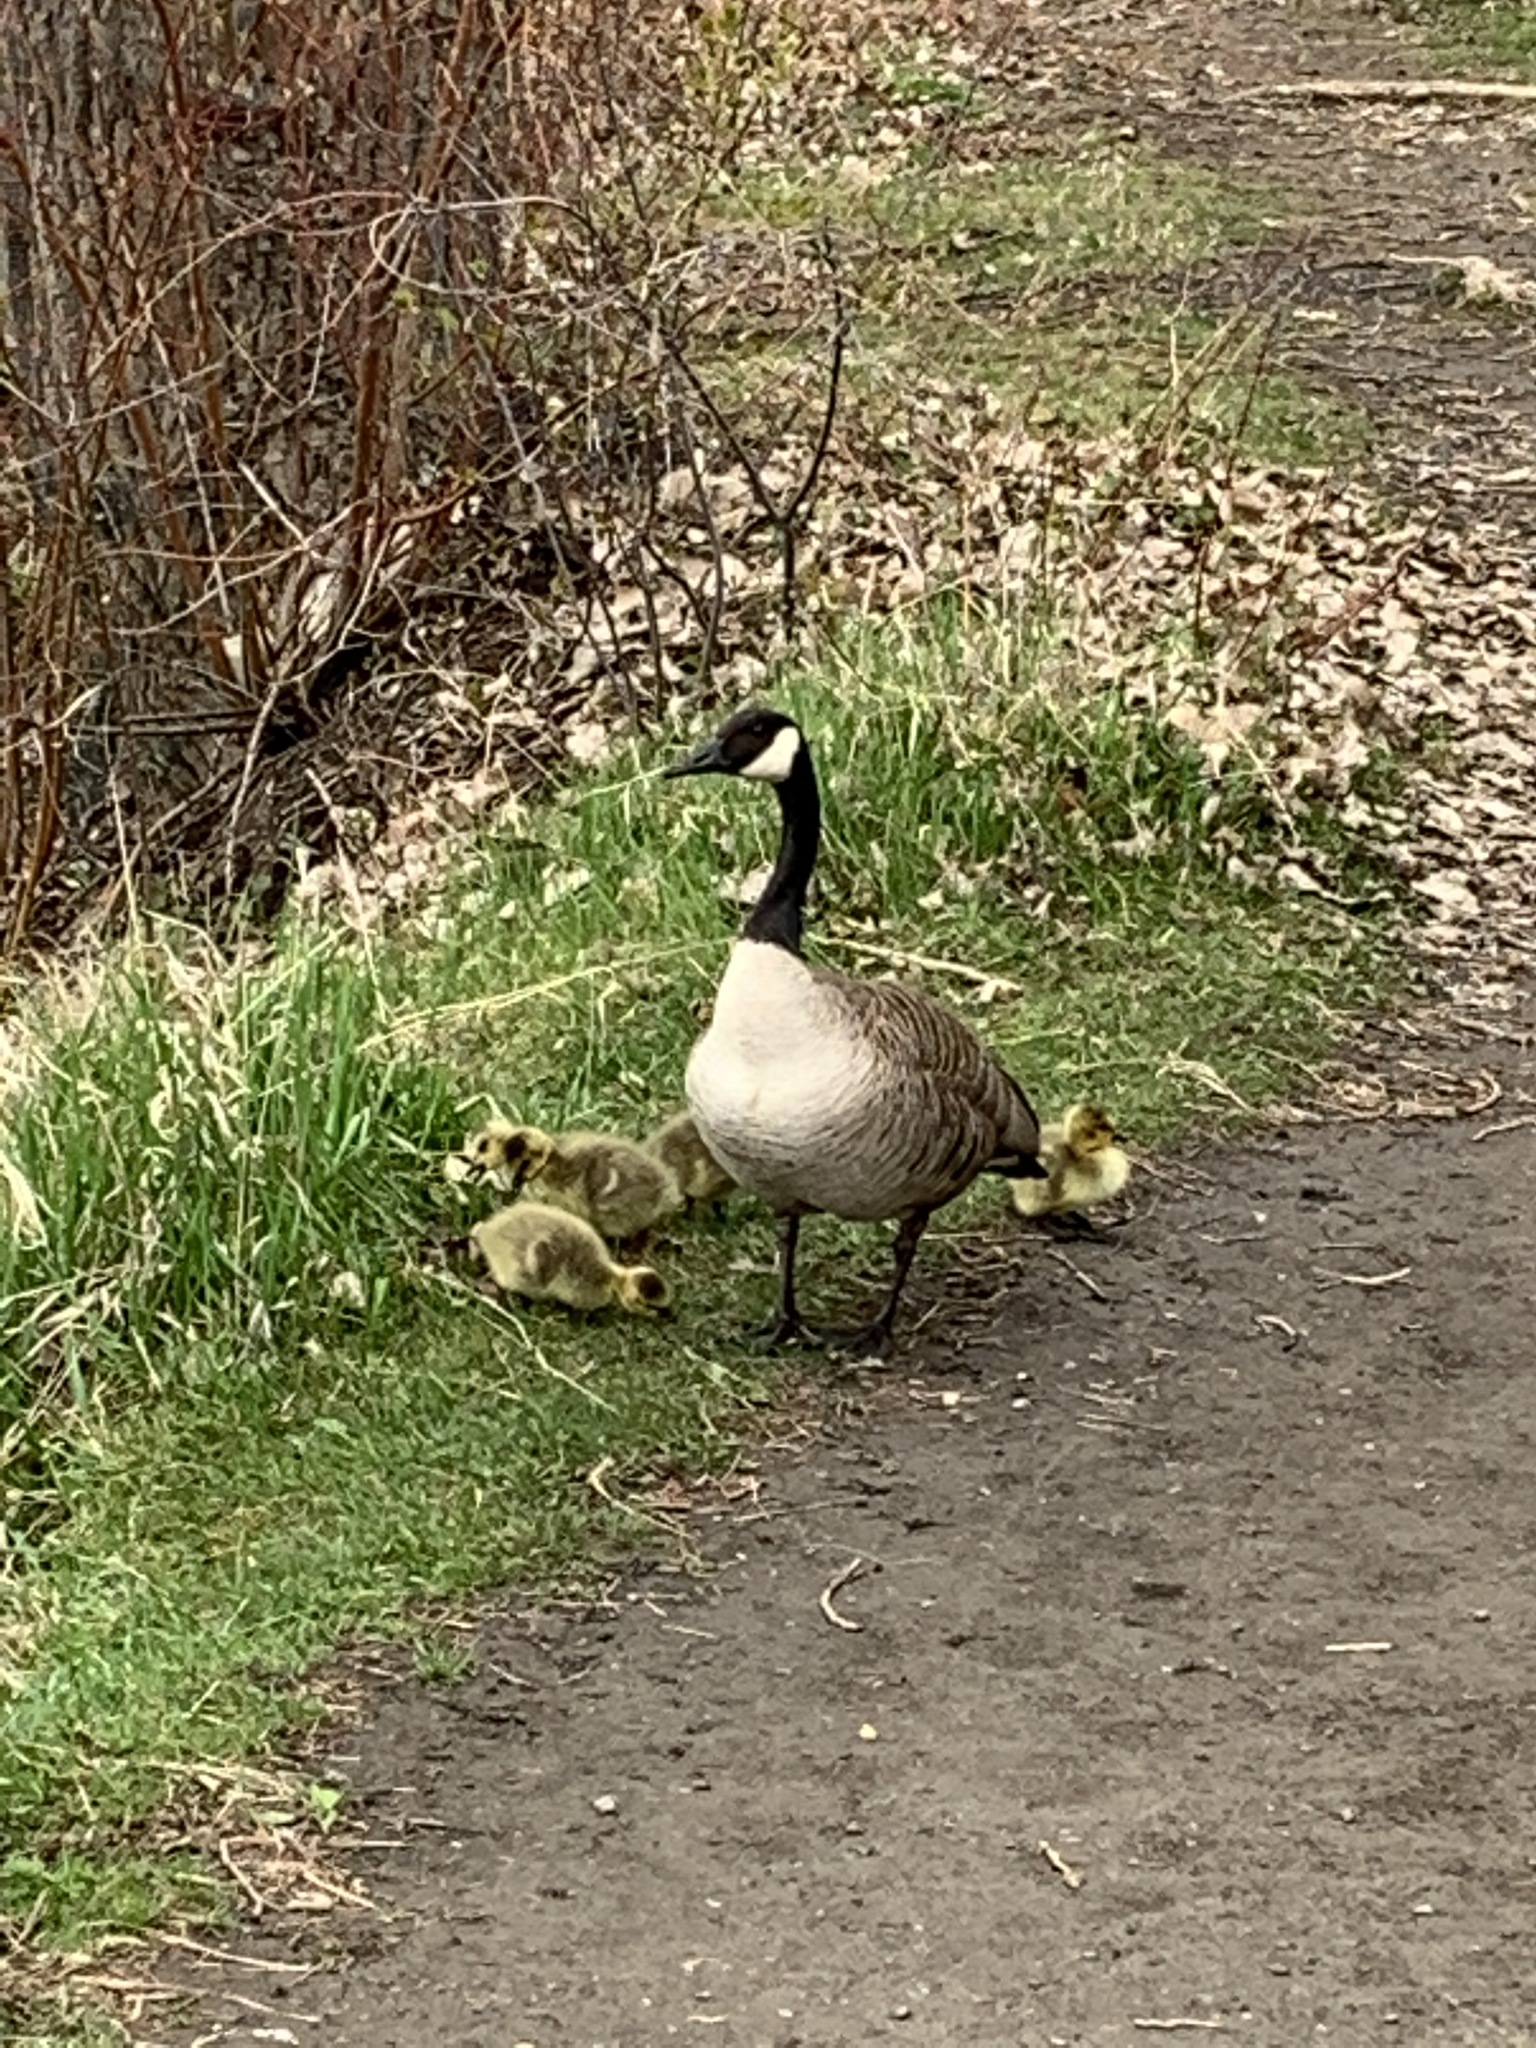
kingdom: Animalia
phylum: Chordata
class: Aves
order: Anseriformes
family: Anatidae
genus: Branta
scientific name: Branta canadensis
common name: Canada goose
